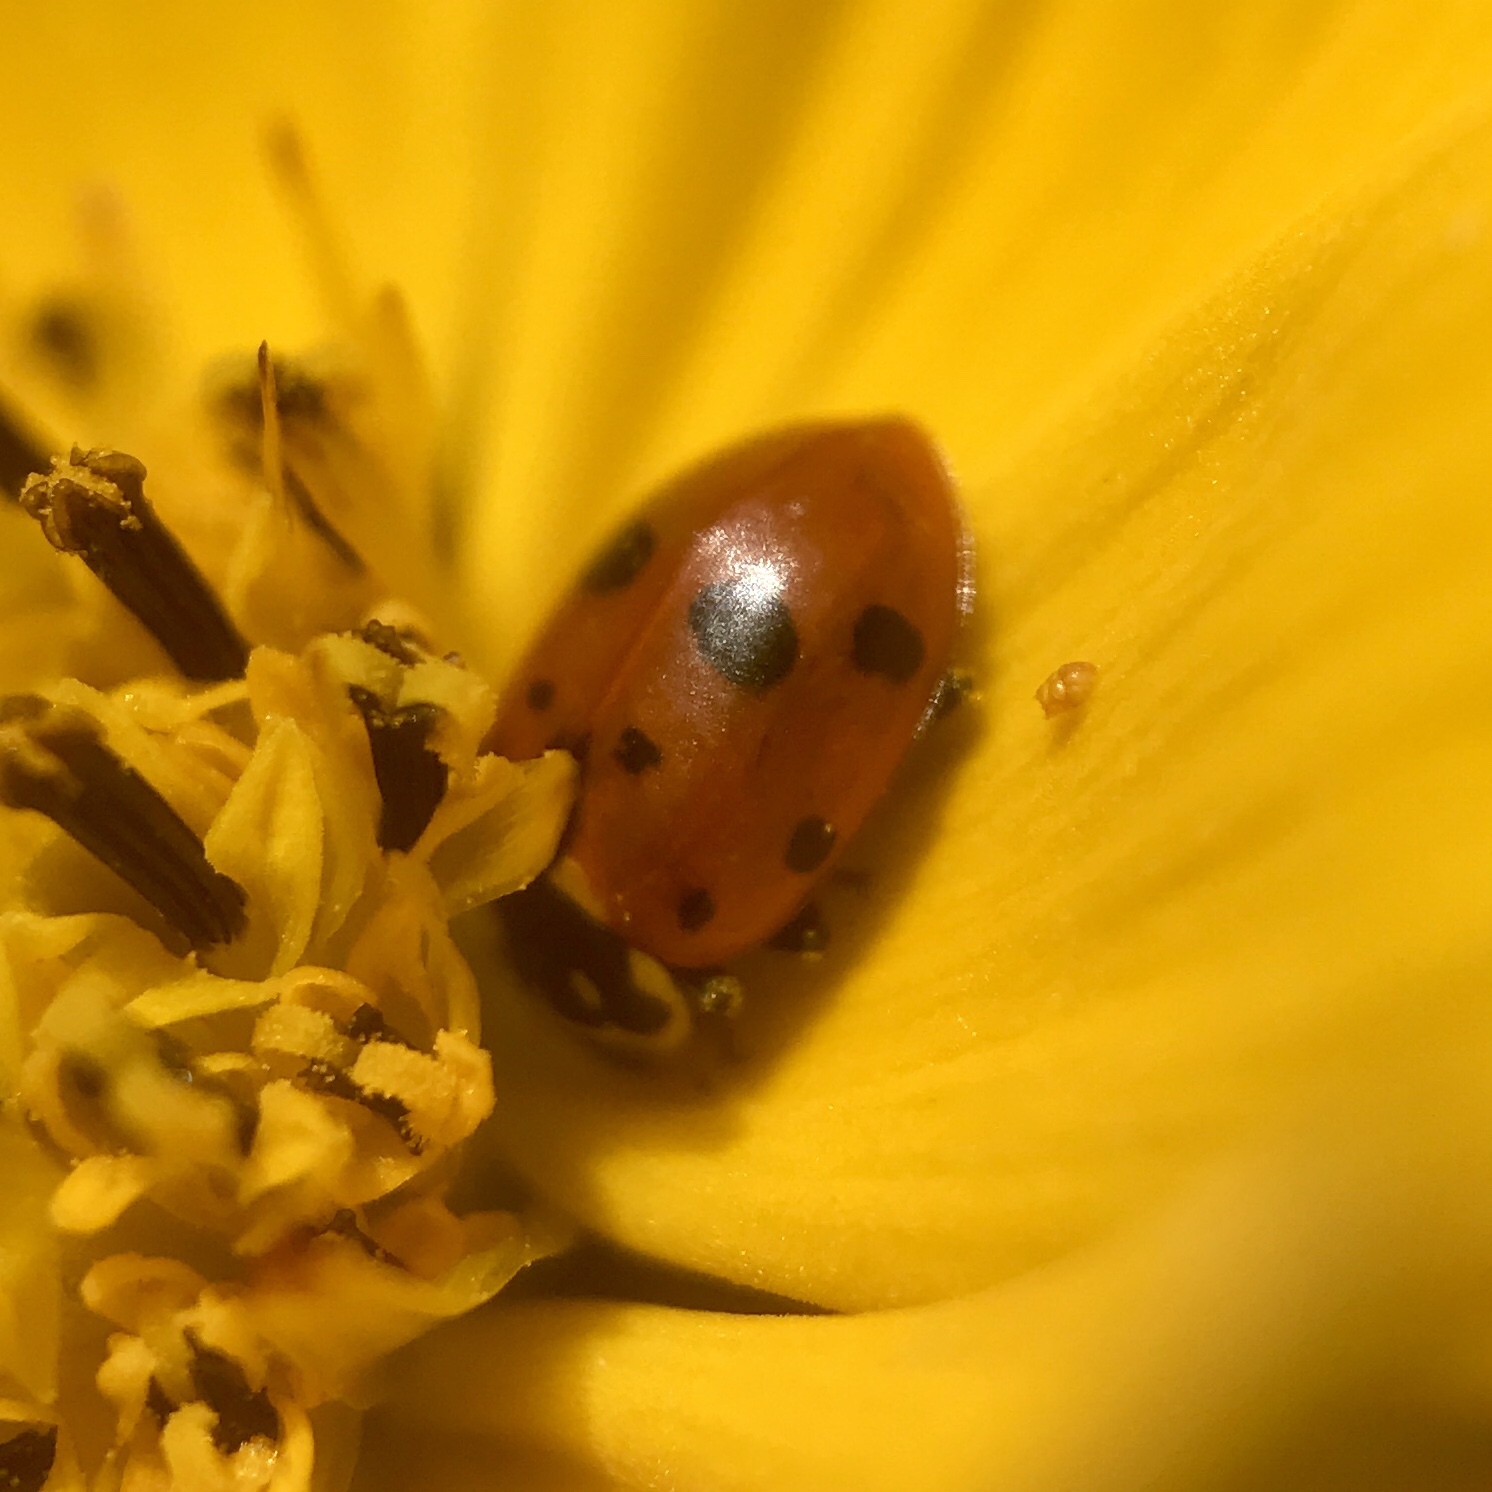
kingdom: Animalia
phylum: Arthropoda
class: Insecta
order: Coleoptera
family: Coccinellidae
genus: Hippodamia
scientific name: Hippodamia variegata
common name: Ladybird beetle
